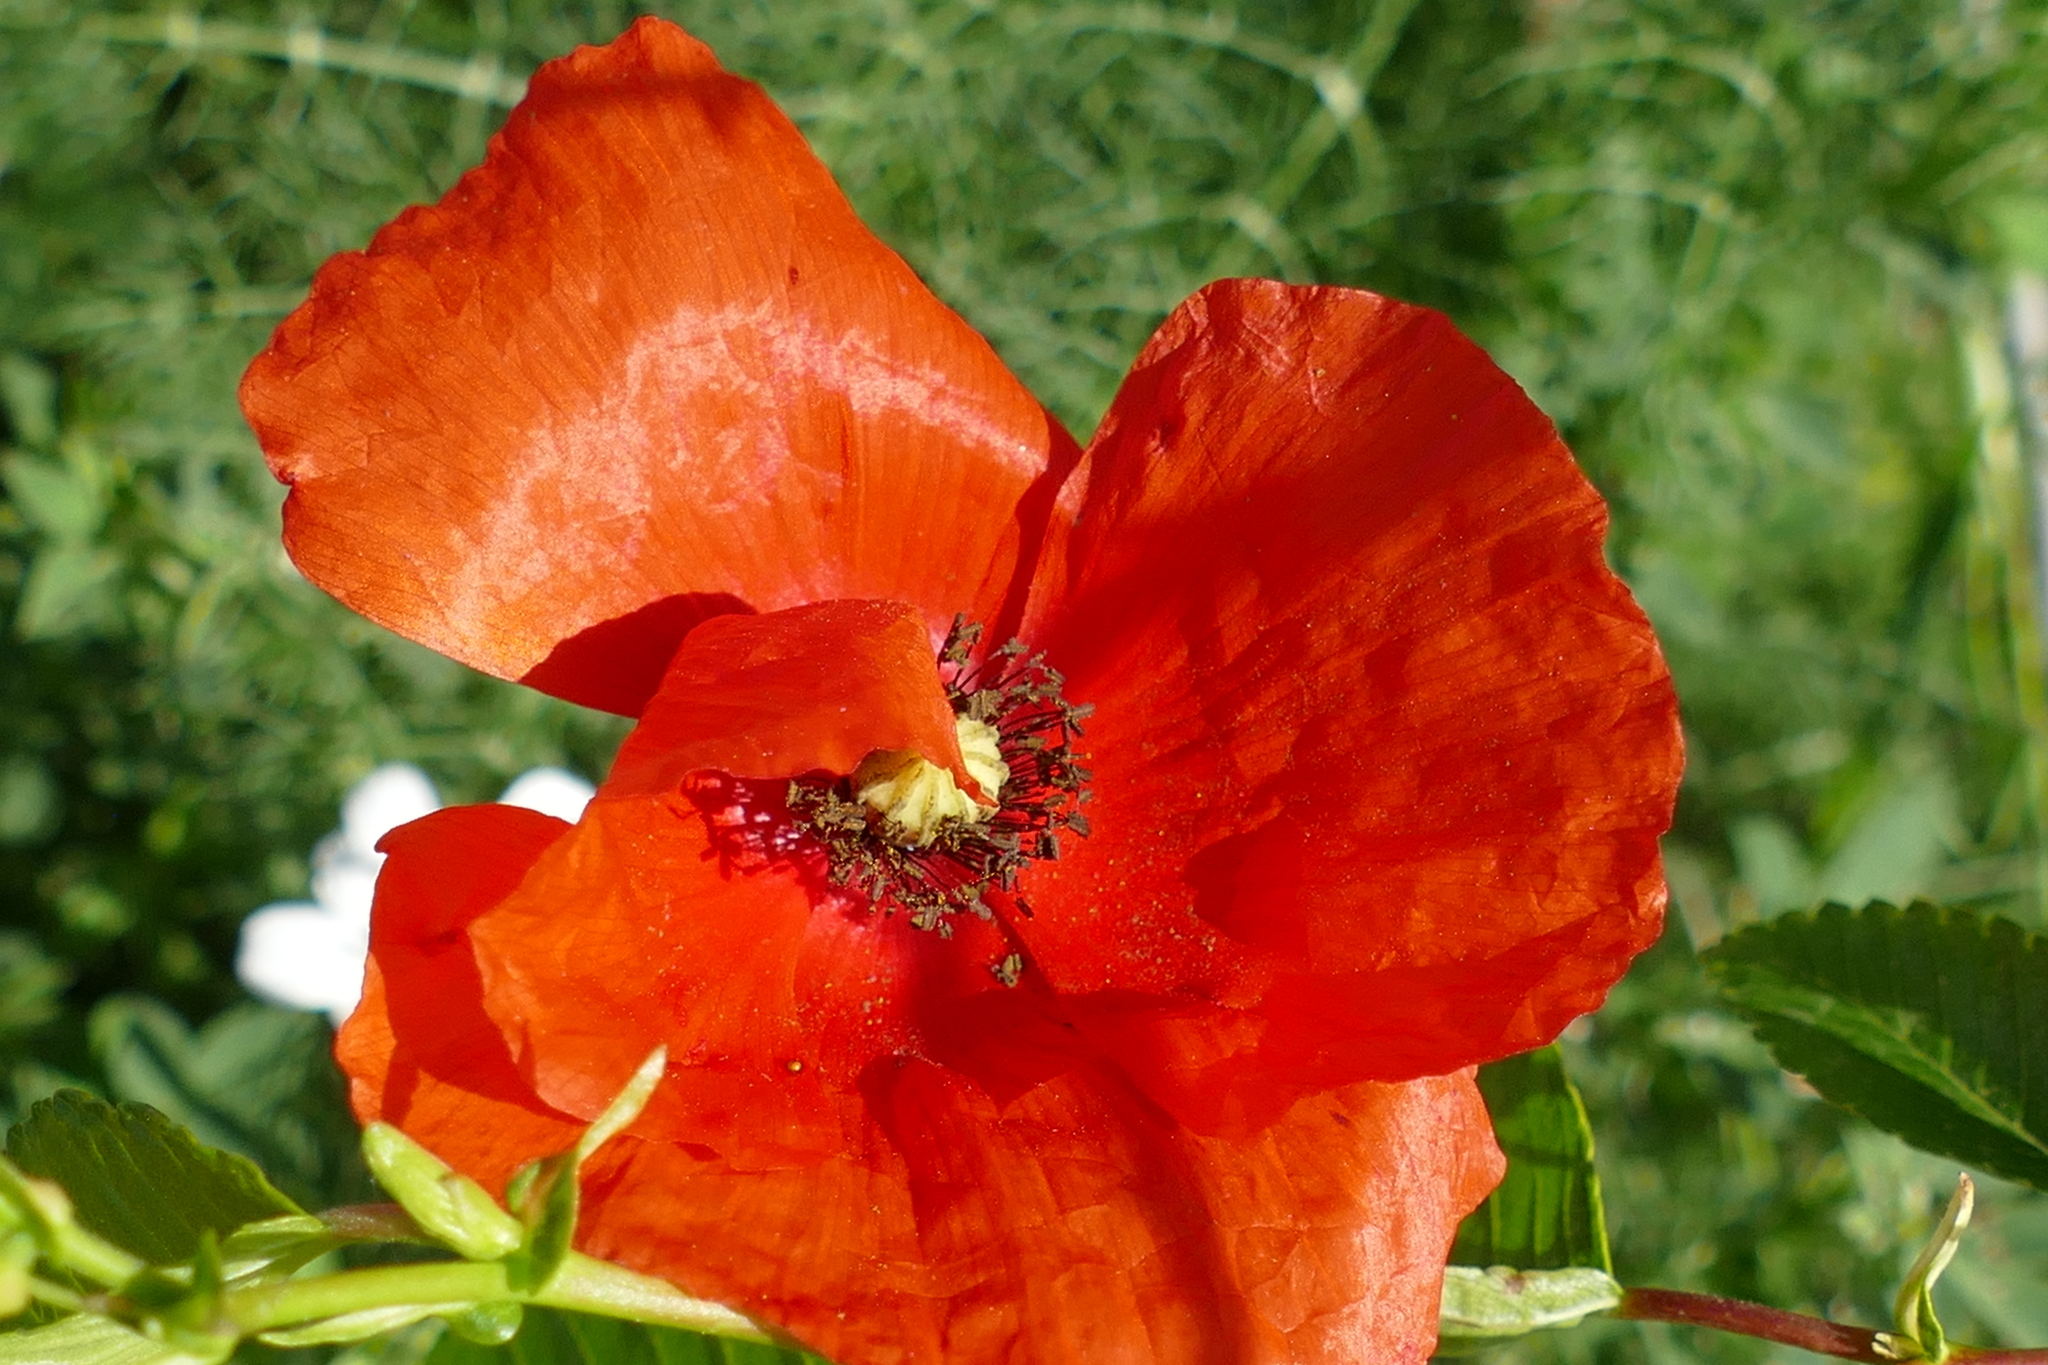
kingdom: Plantae
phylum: Tracheophyta
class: Magnoliopsida
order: Ranunculales
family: Papaveraceae
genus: Papaver
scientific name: Papaver rhoeas
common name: Corn poppy
